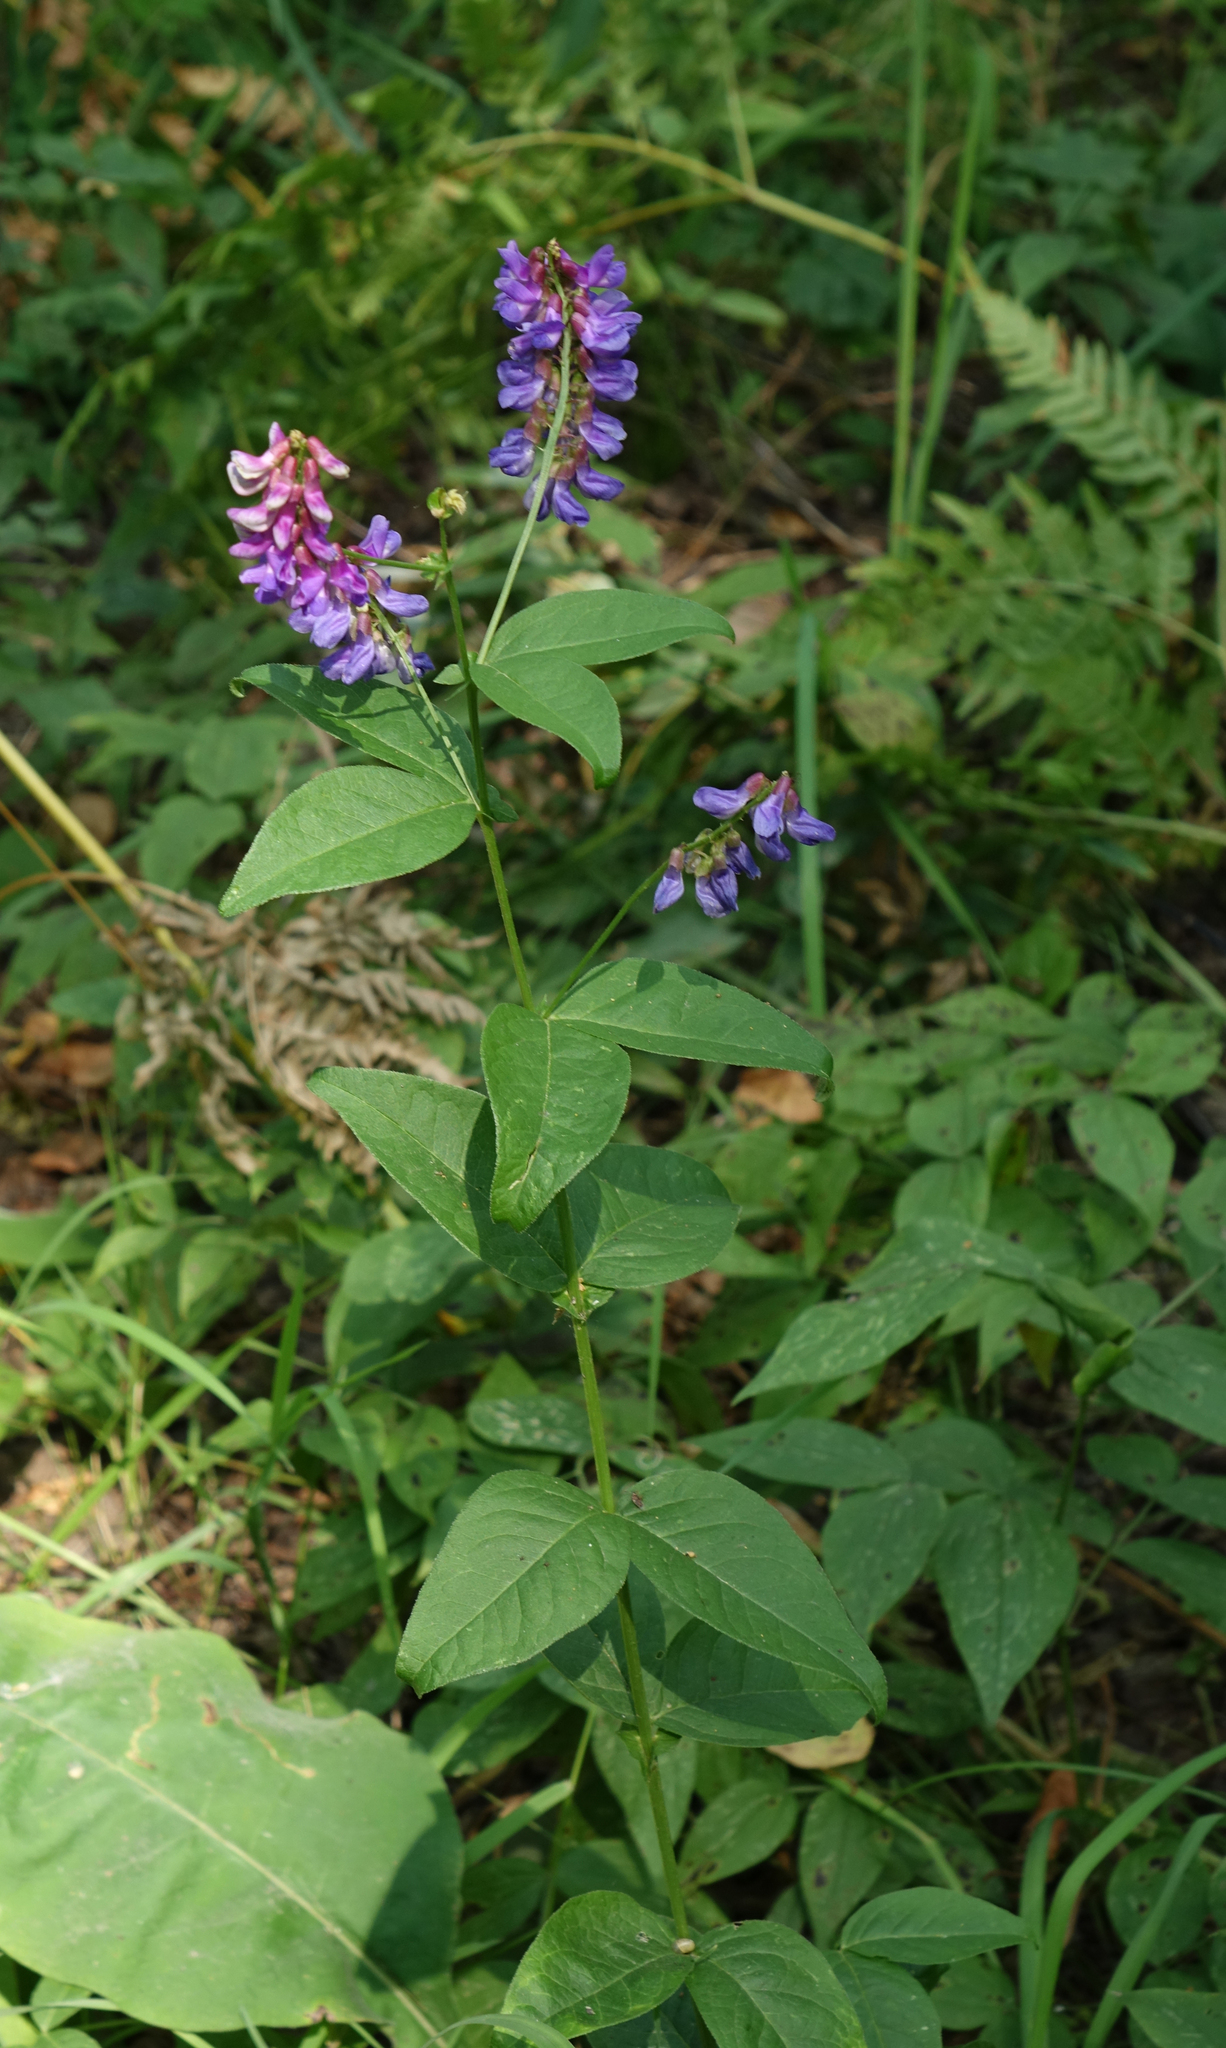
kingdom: Plantae
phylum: Tracheophyta
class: Magnoliopsida
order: Fabales
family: Fabaceae
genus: Vicia
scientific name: Vicia unijuga
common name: Two-leaf vetch
